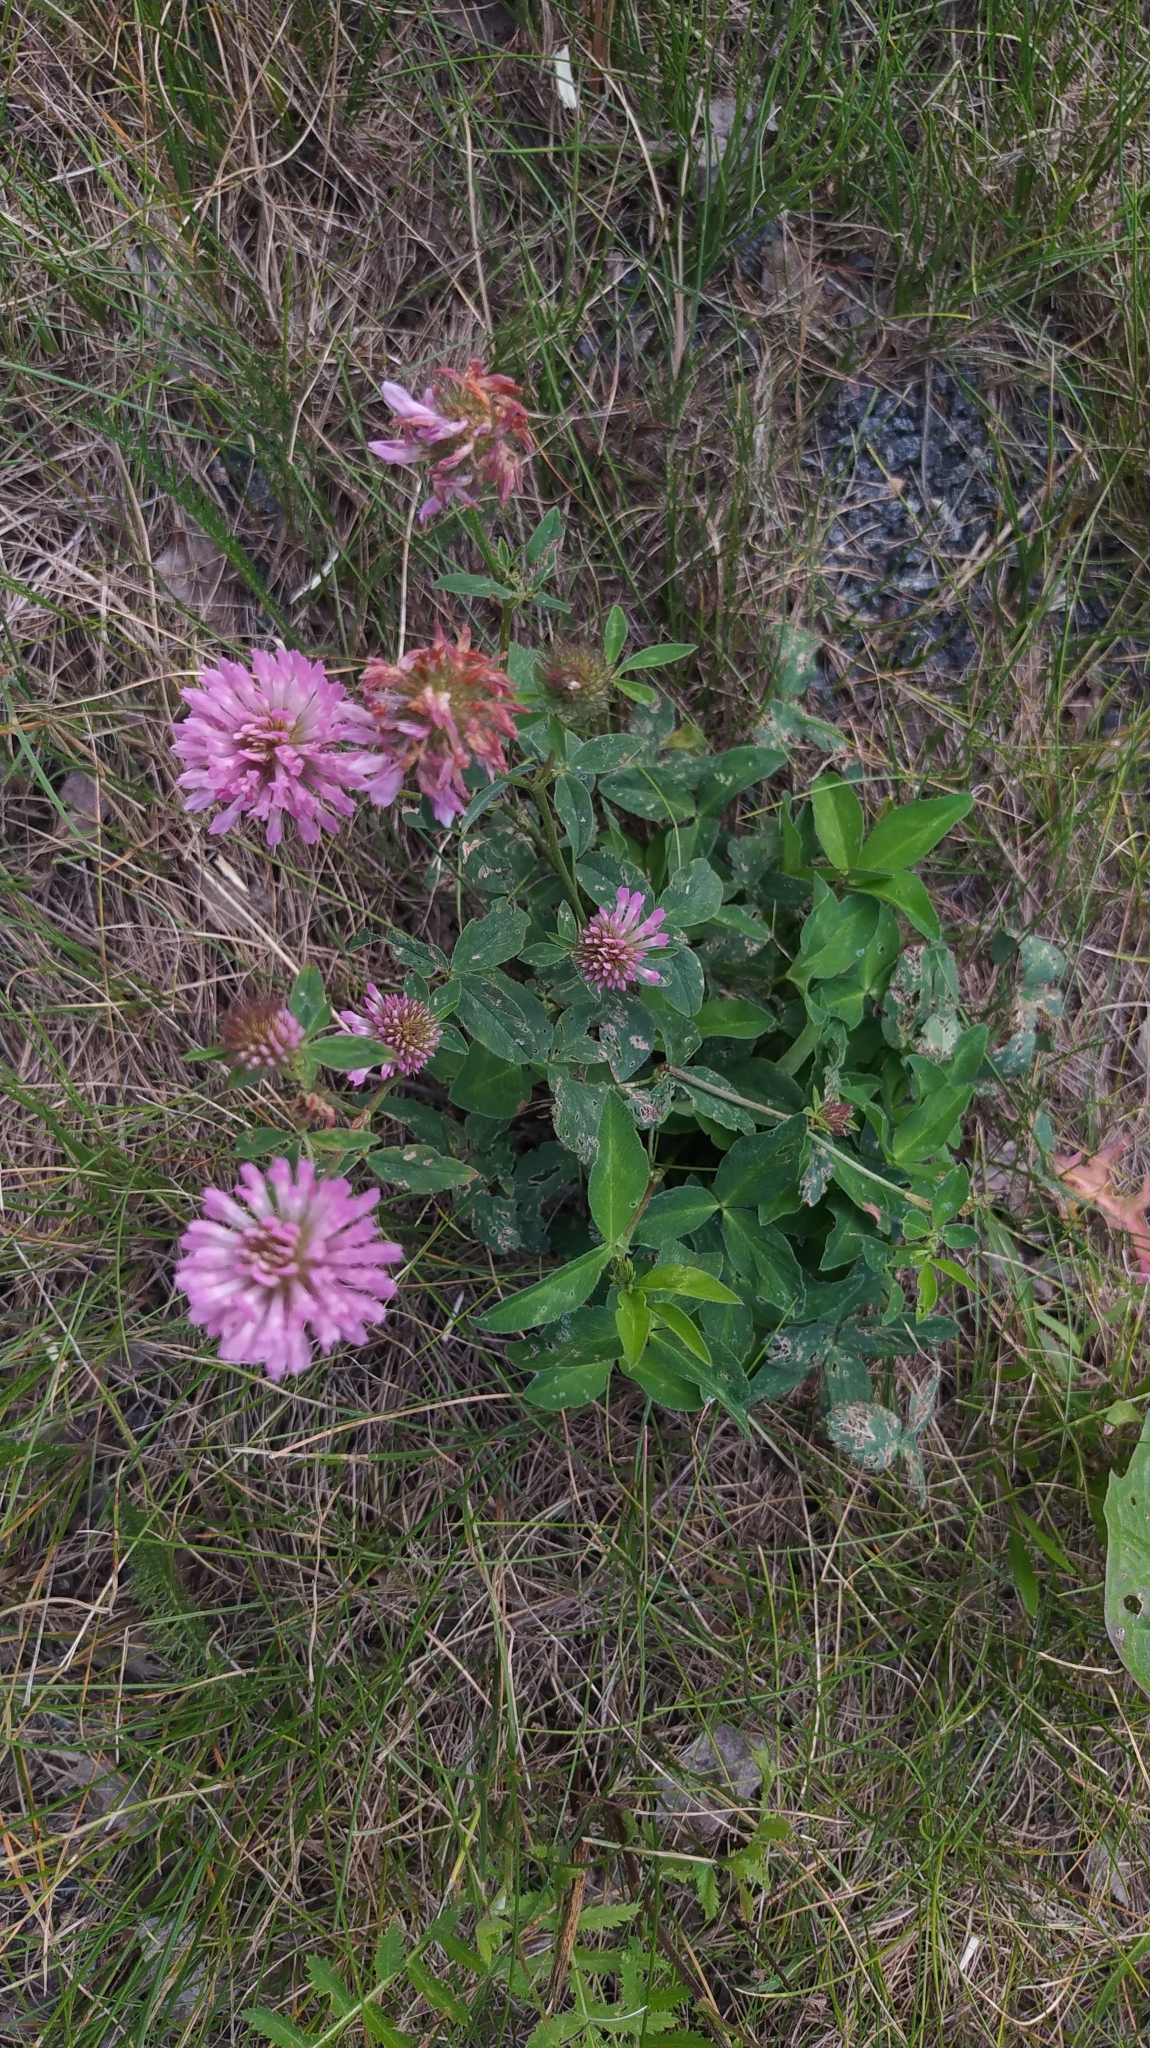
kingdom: Plantae
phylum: Tracheophyta
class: Magnoliopsida
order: Fabales
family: Fabaceae
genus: Trifolium
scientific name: Trifolium pratense
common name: Red clover
